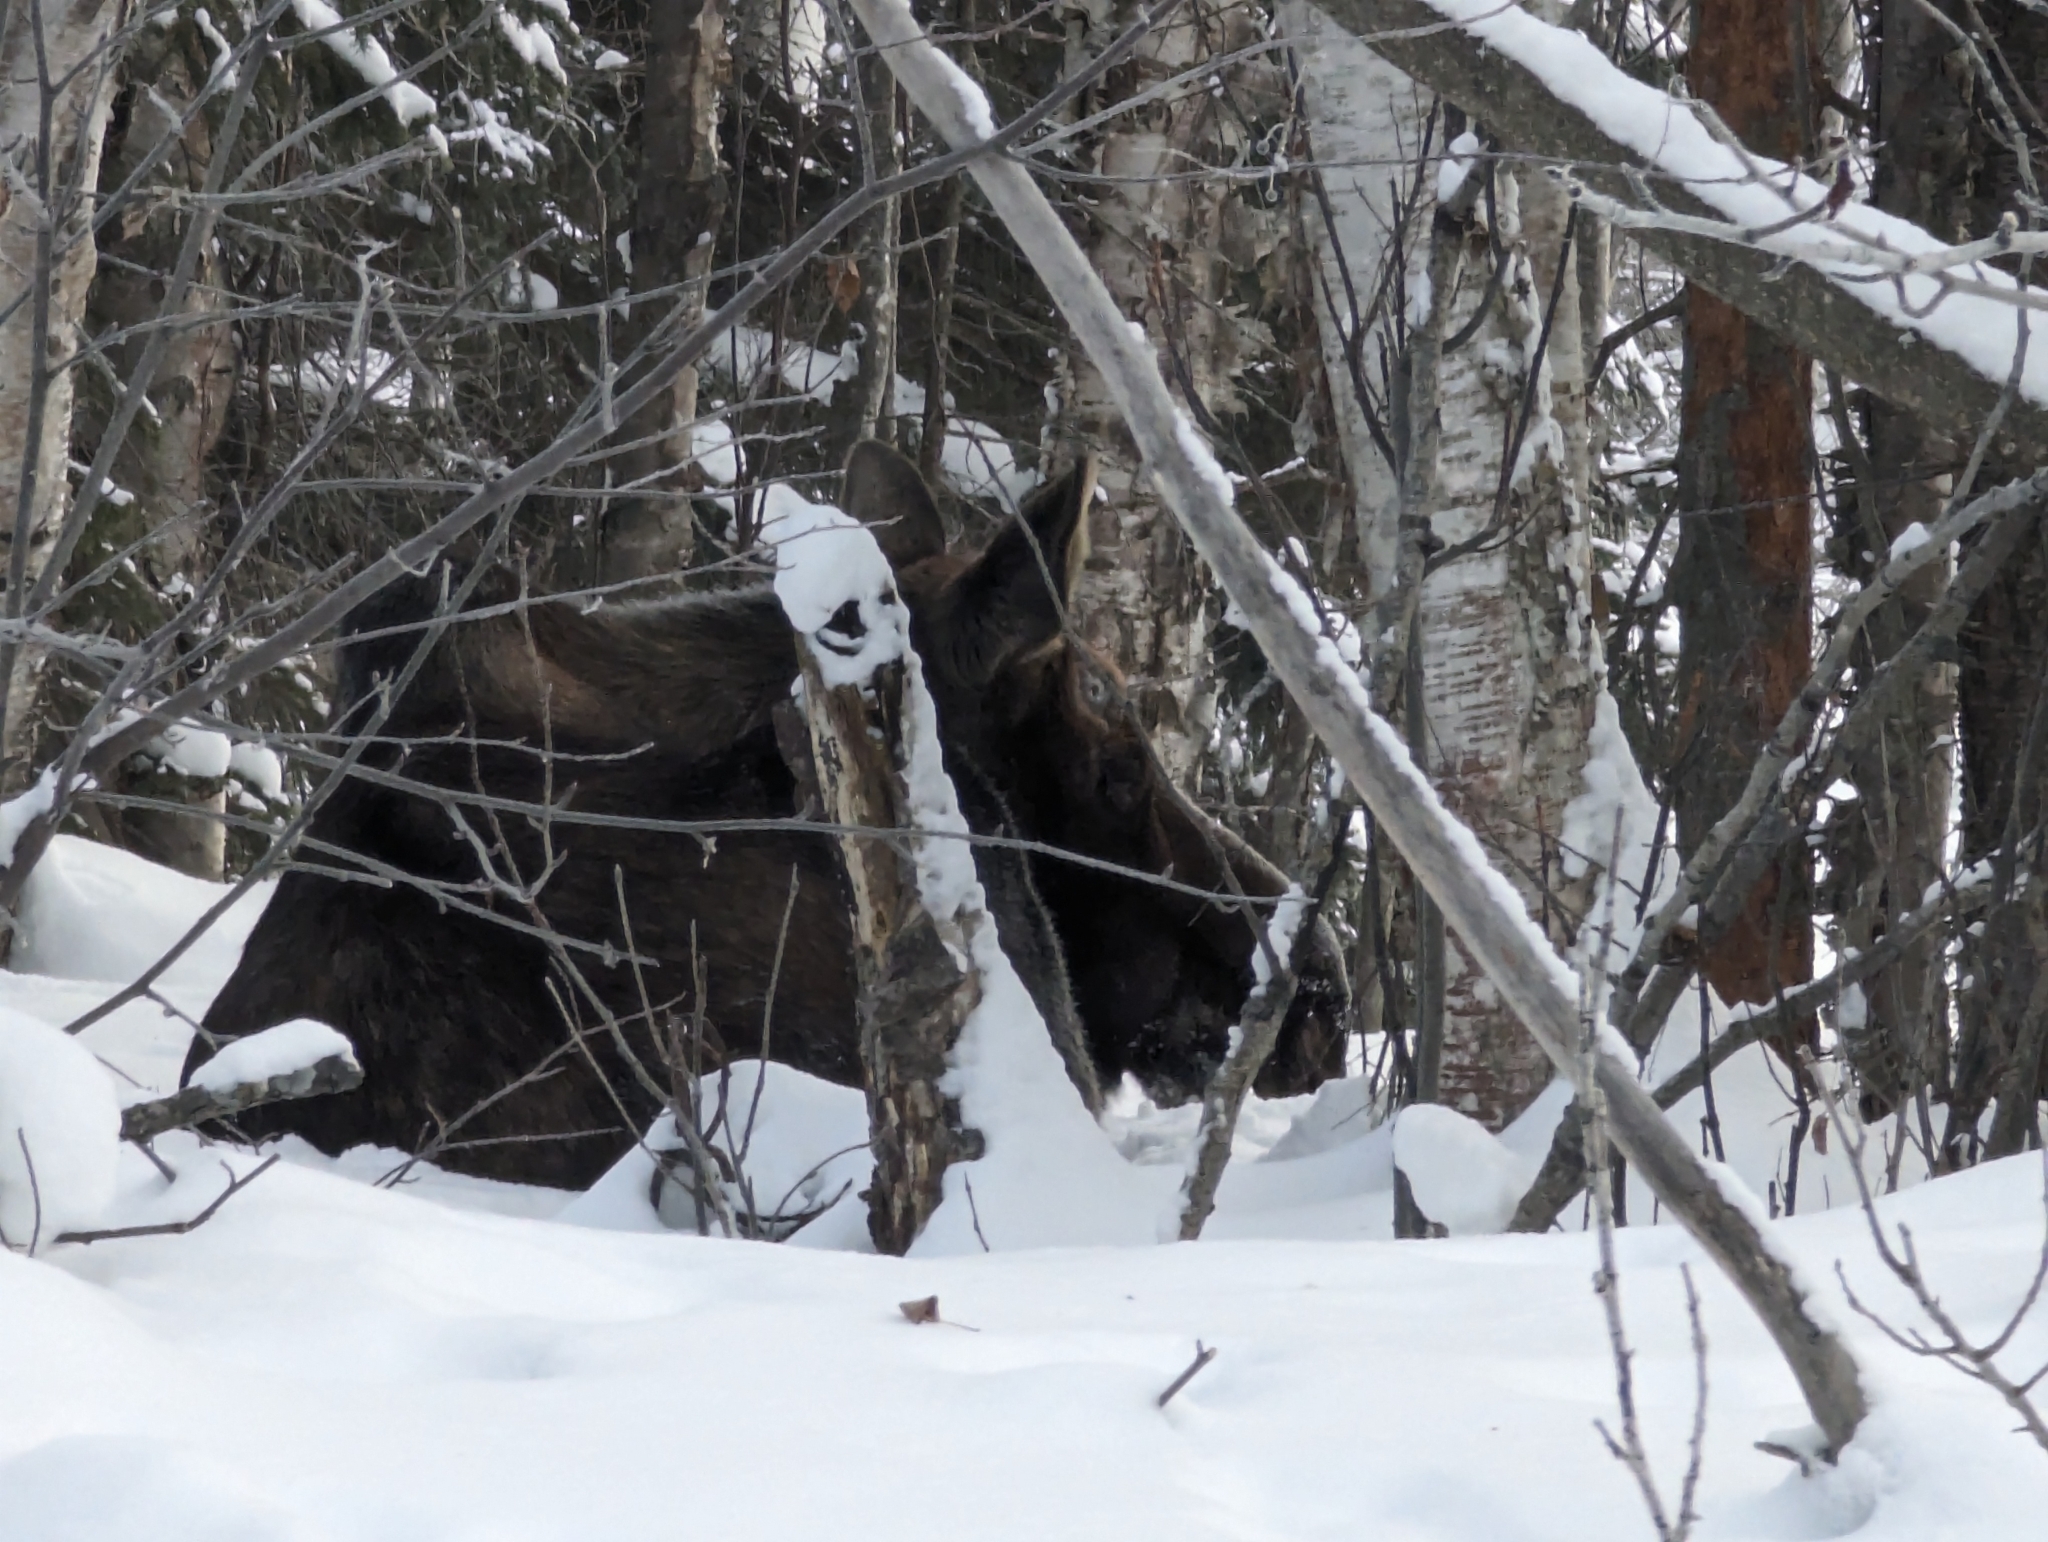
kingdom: Animalia
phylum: Chordata
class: Mammalia
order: Artiodactyla
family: Cervidae
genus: Alces
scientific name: Alces alces
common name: Moose
